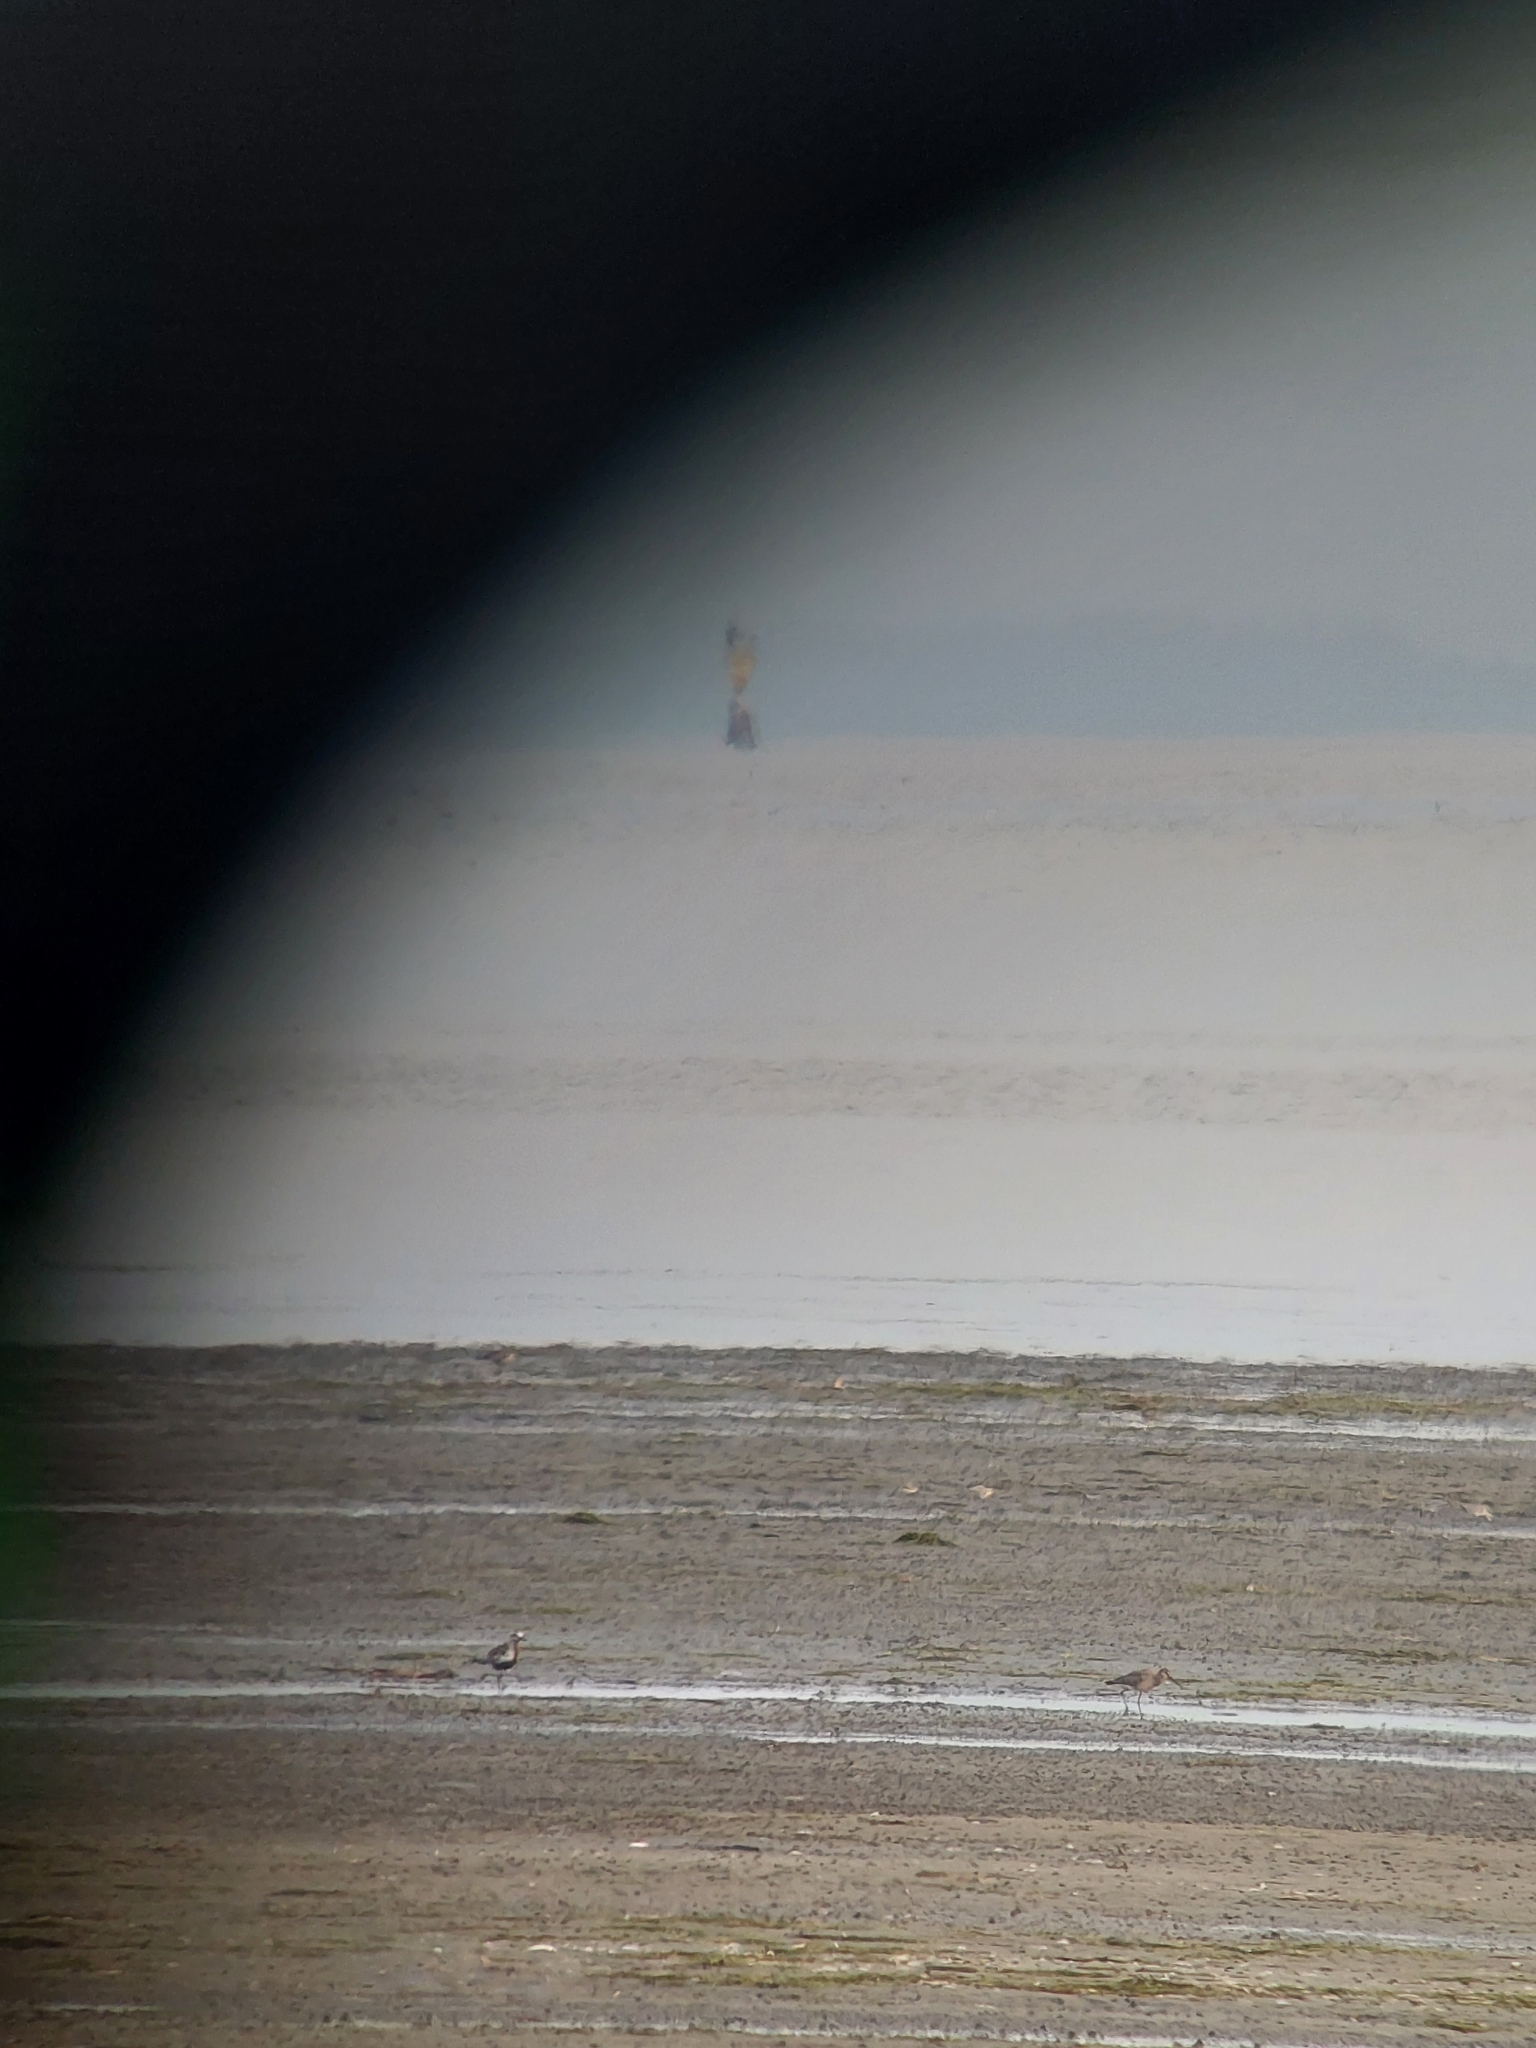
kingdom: Animalia
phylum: Chordata
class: Aves
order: Charadriiformes
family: Scolopacidae
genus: Limosa
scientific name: Limosa haemastica
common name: Hudsonian godwit
